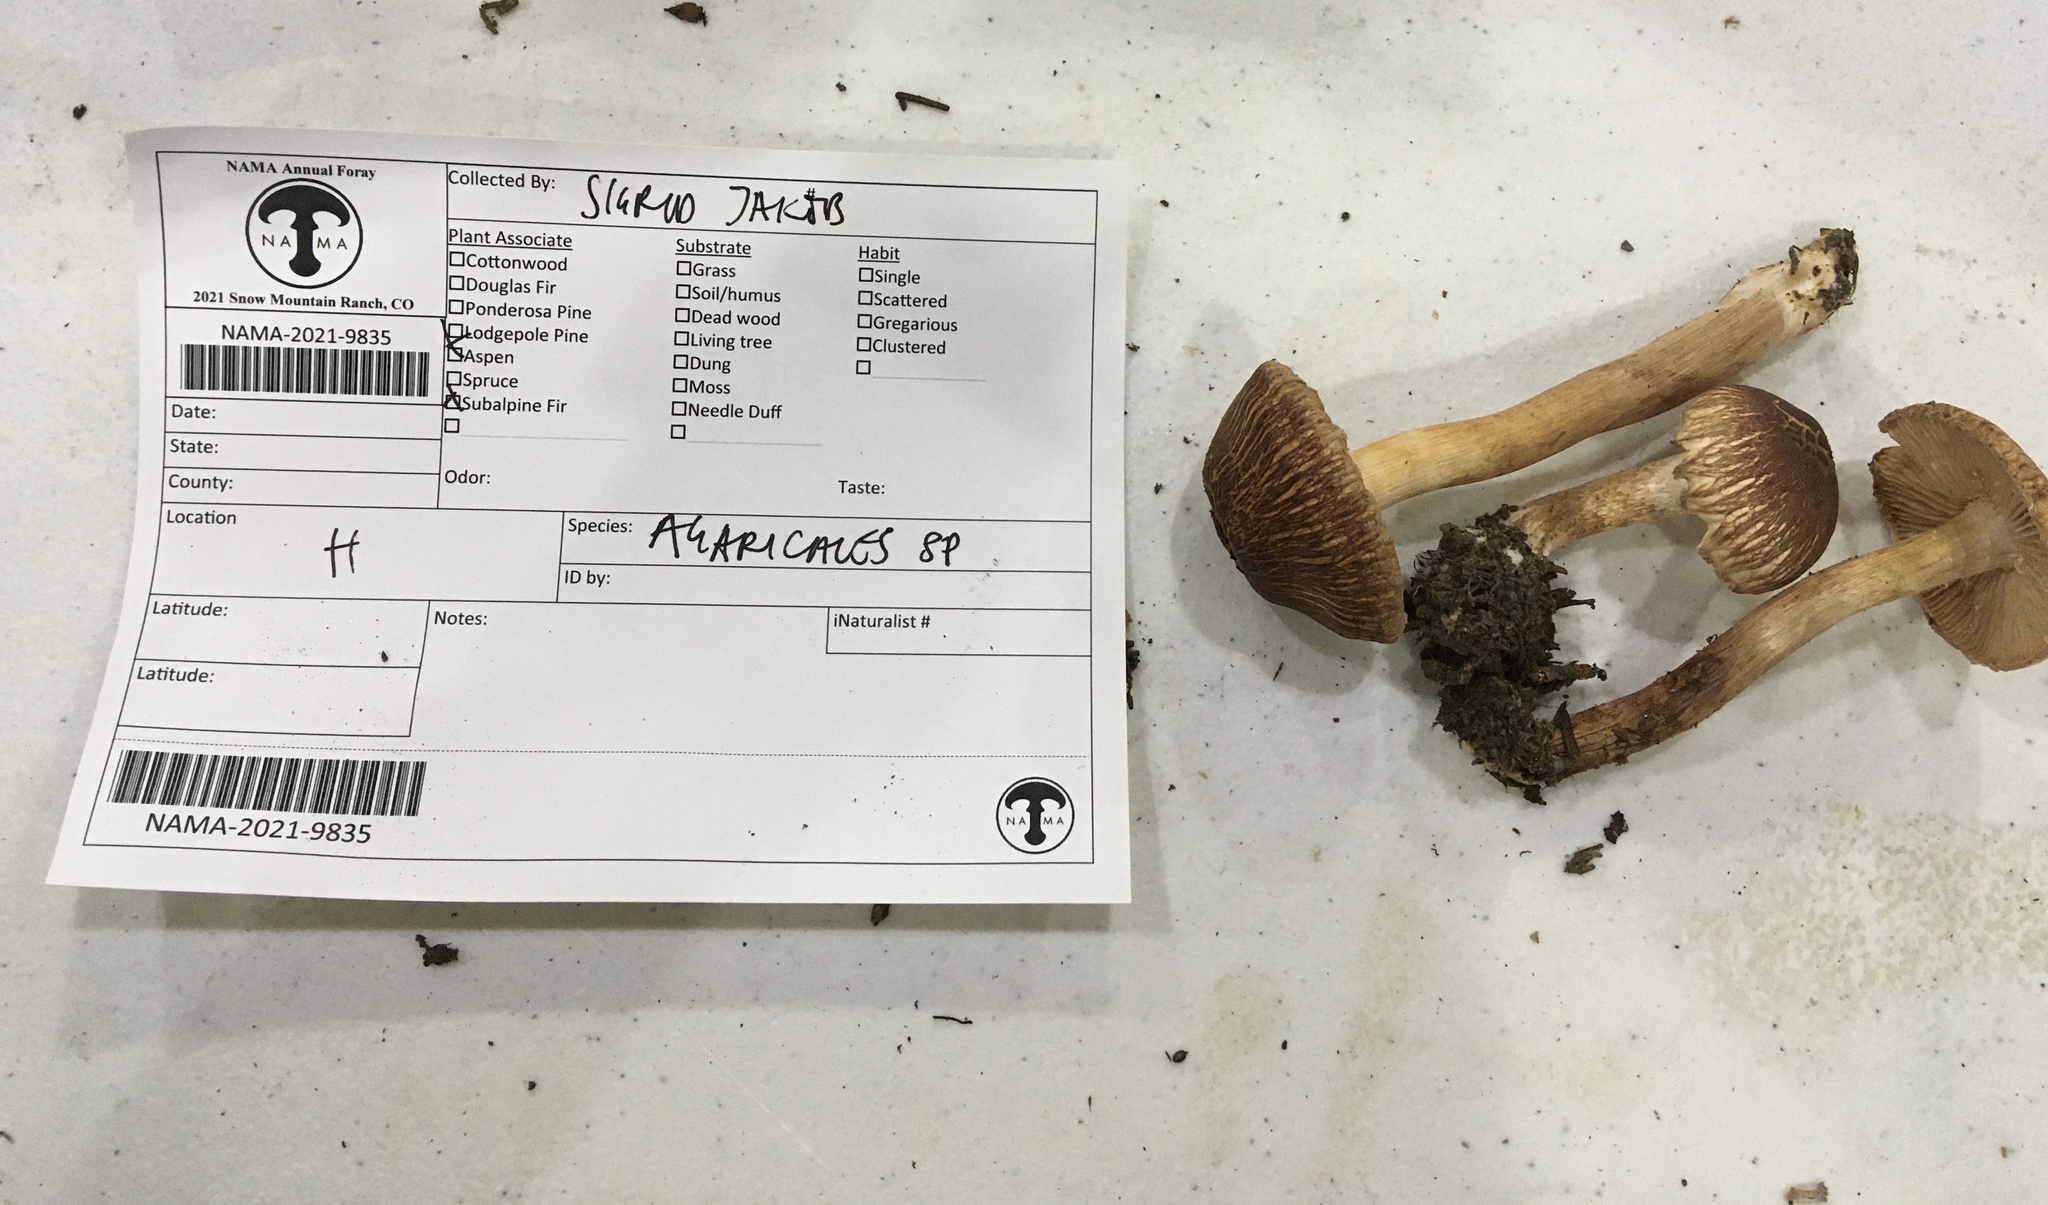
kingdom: Fungi
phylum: Basidiomycota
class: Agaricomycetes
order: Agaricales
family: Tricholomataceae
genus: Tricholoma
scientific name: Tricholoma imbricatum
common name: Matt knight
